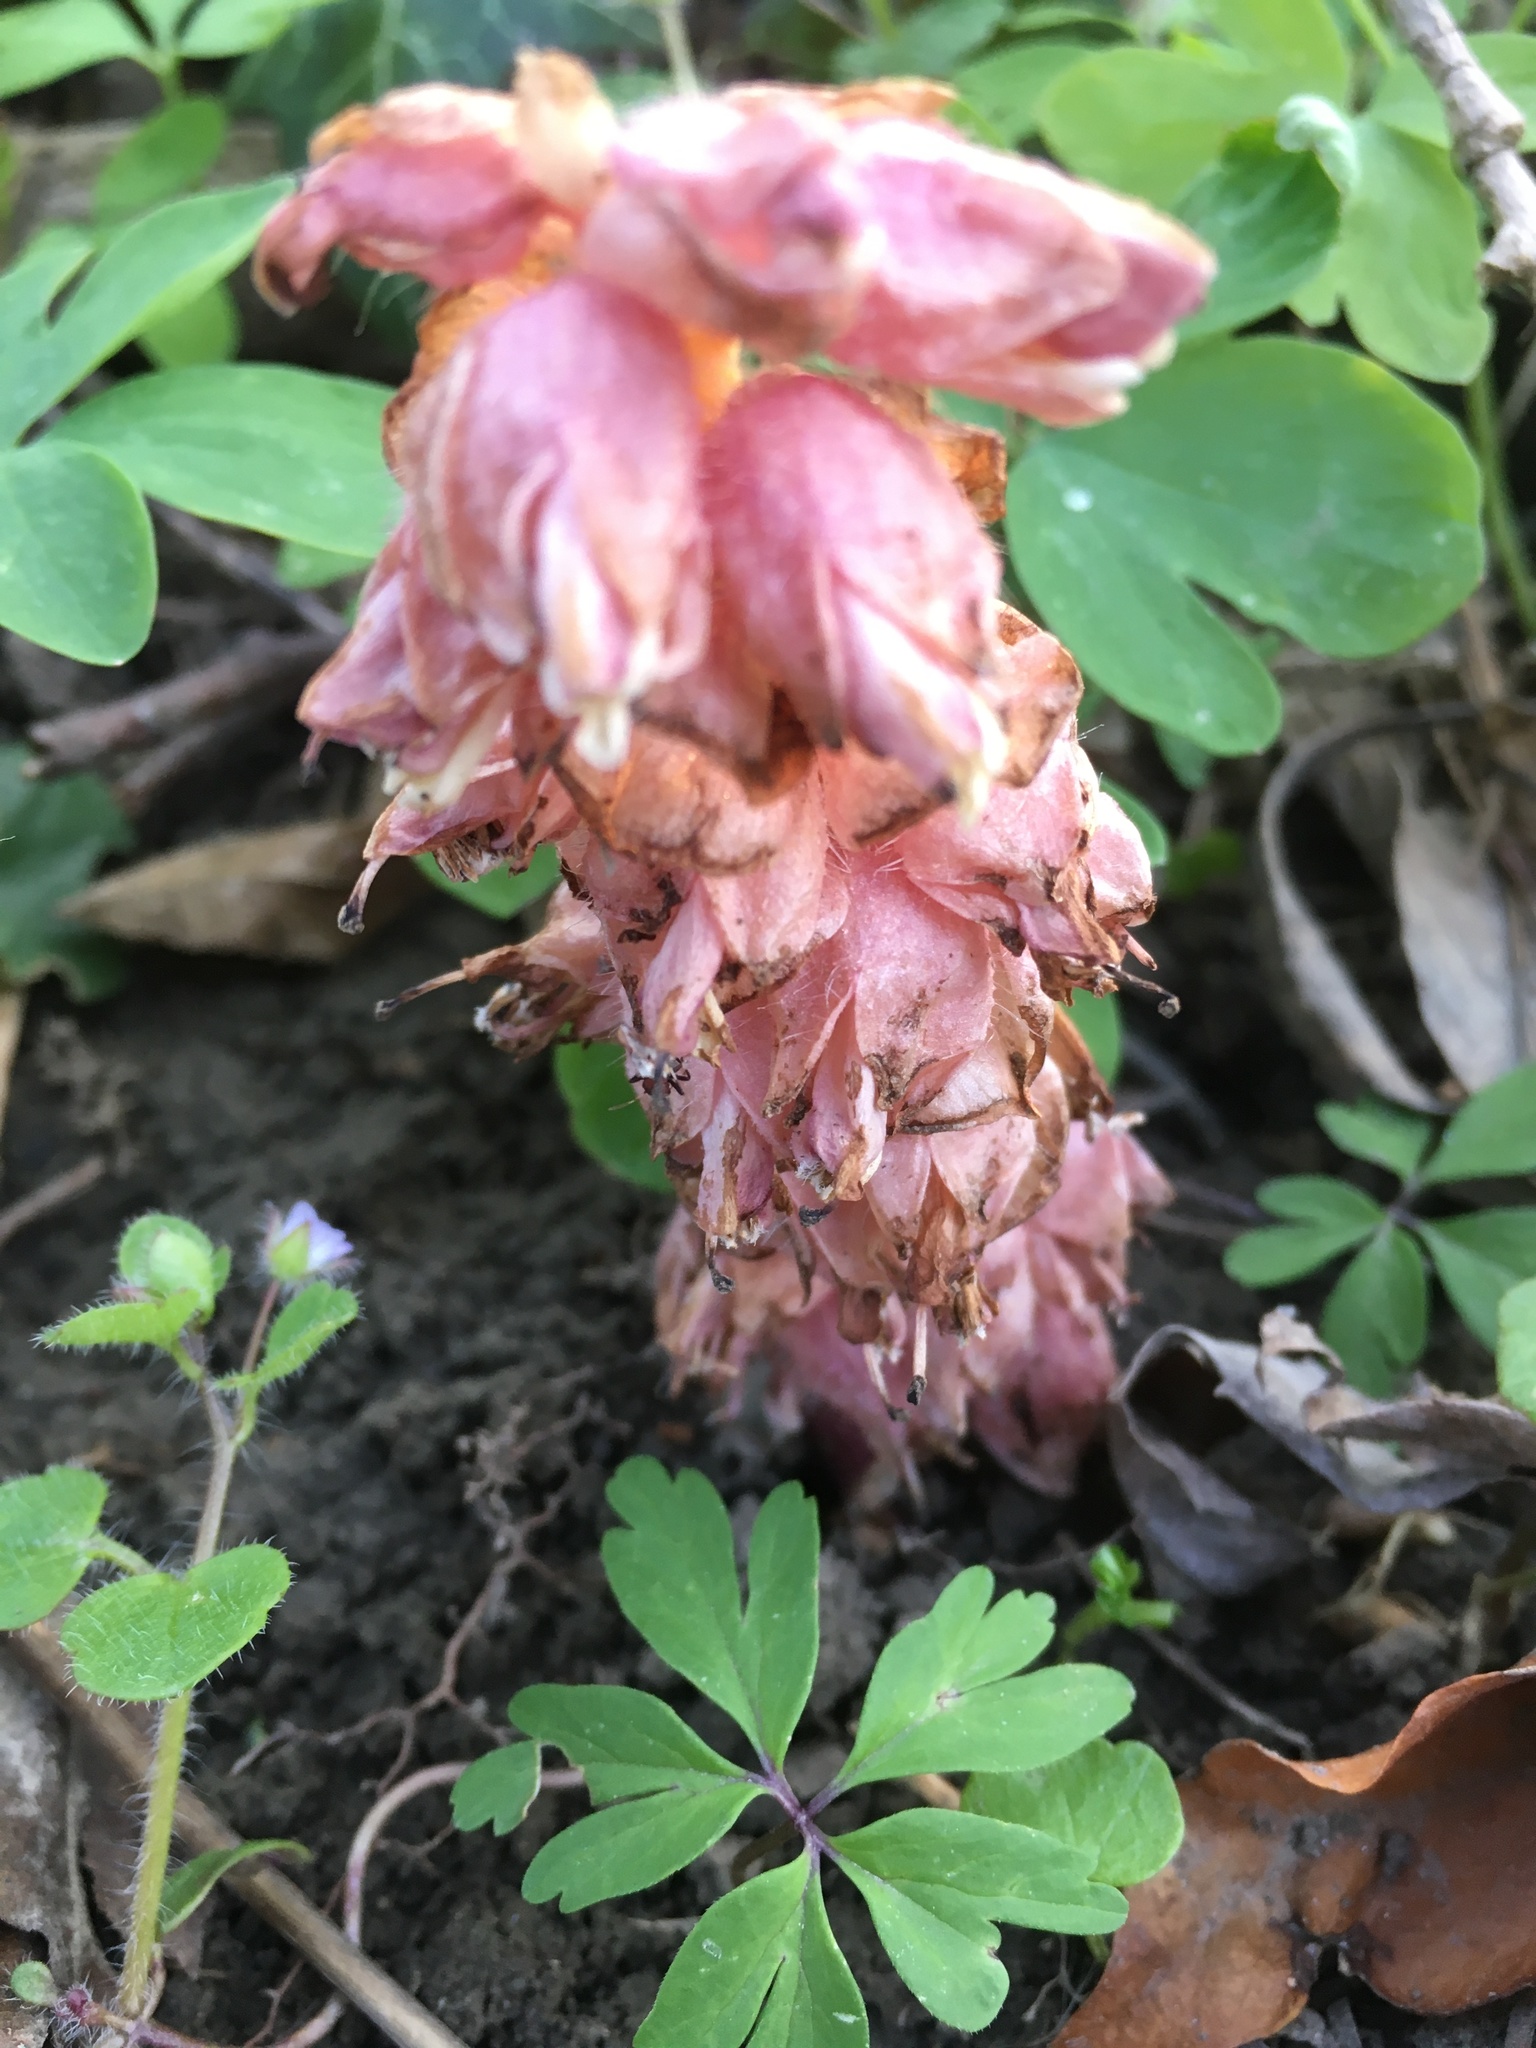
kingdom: Plantae
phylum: Tracheophyta
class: Magnoliopsida
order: Lamiales
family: Orobanchaceae
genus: Lathraea
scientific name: Lathraea squamaria
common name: Toothwort
